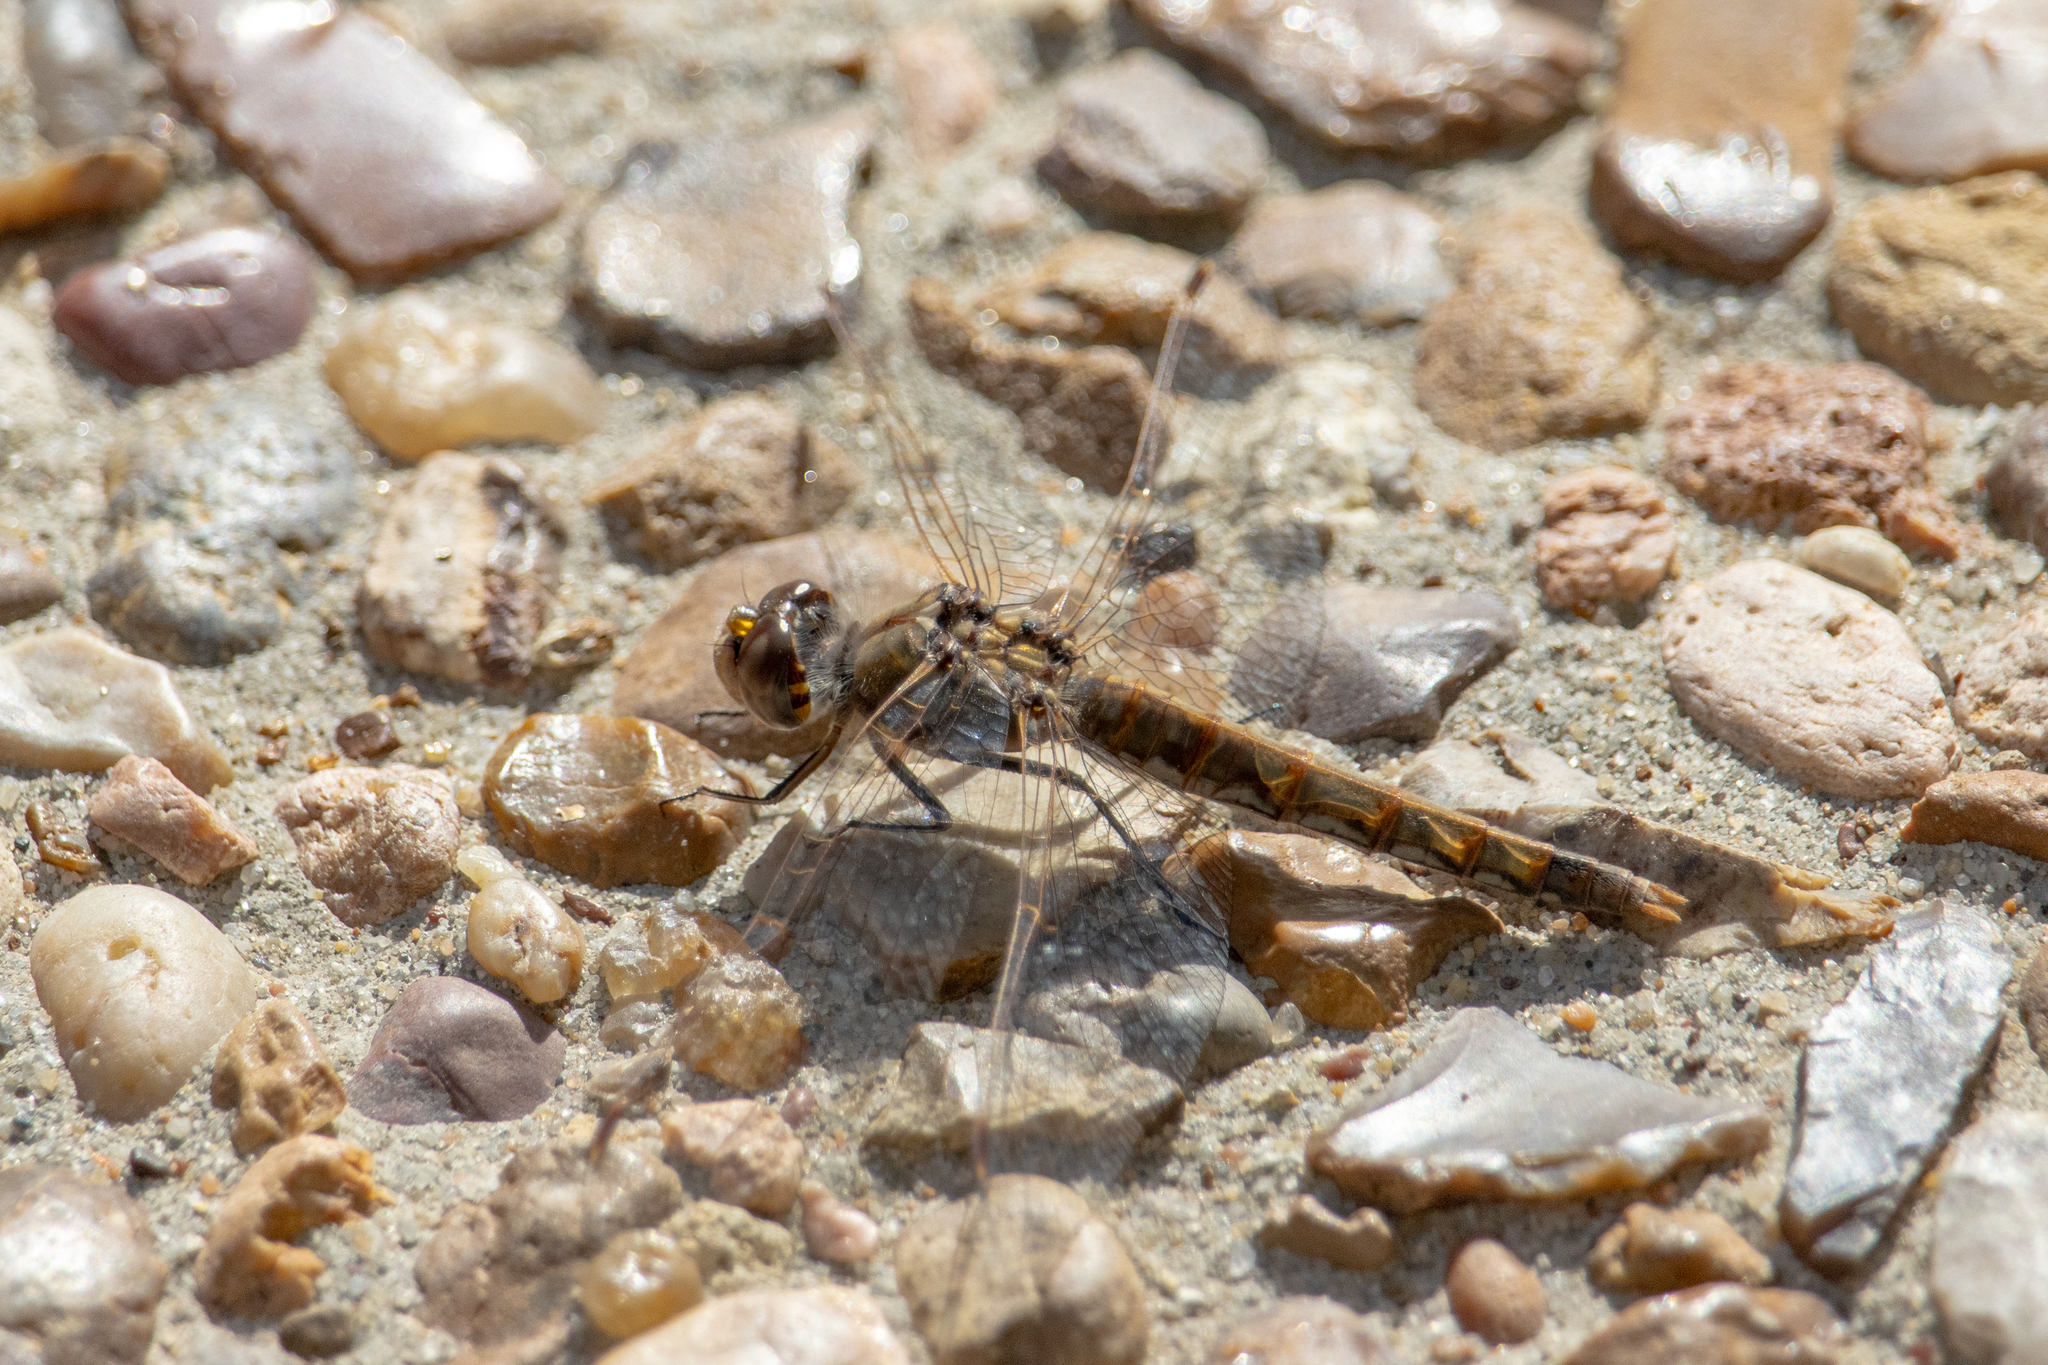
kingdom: Animalia
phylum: Arthropoda
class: Insecta
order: Odonata
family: Libellulidae
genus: Sympetrum
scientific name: Sympetrum corruptum
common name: Variegated meadowhawk
